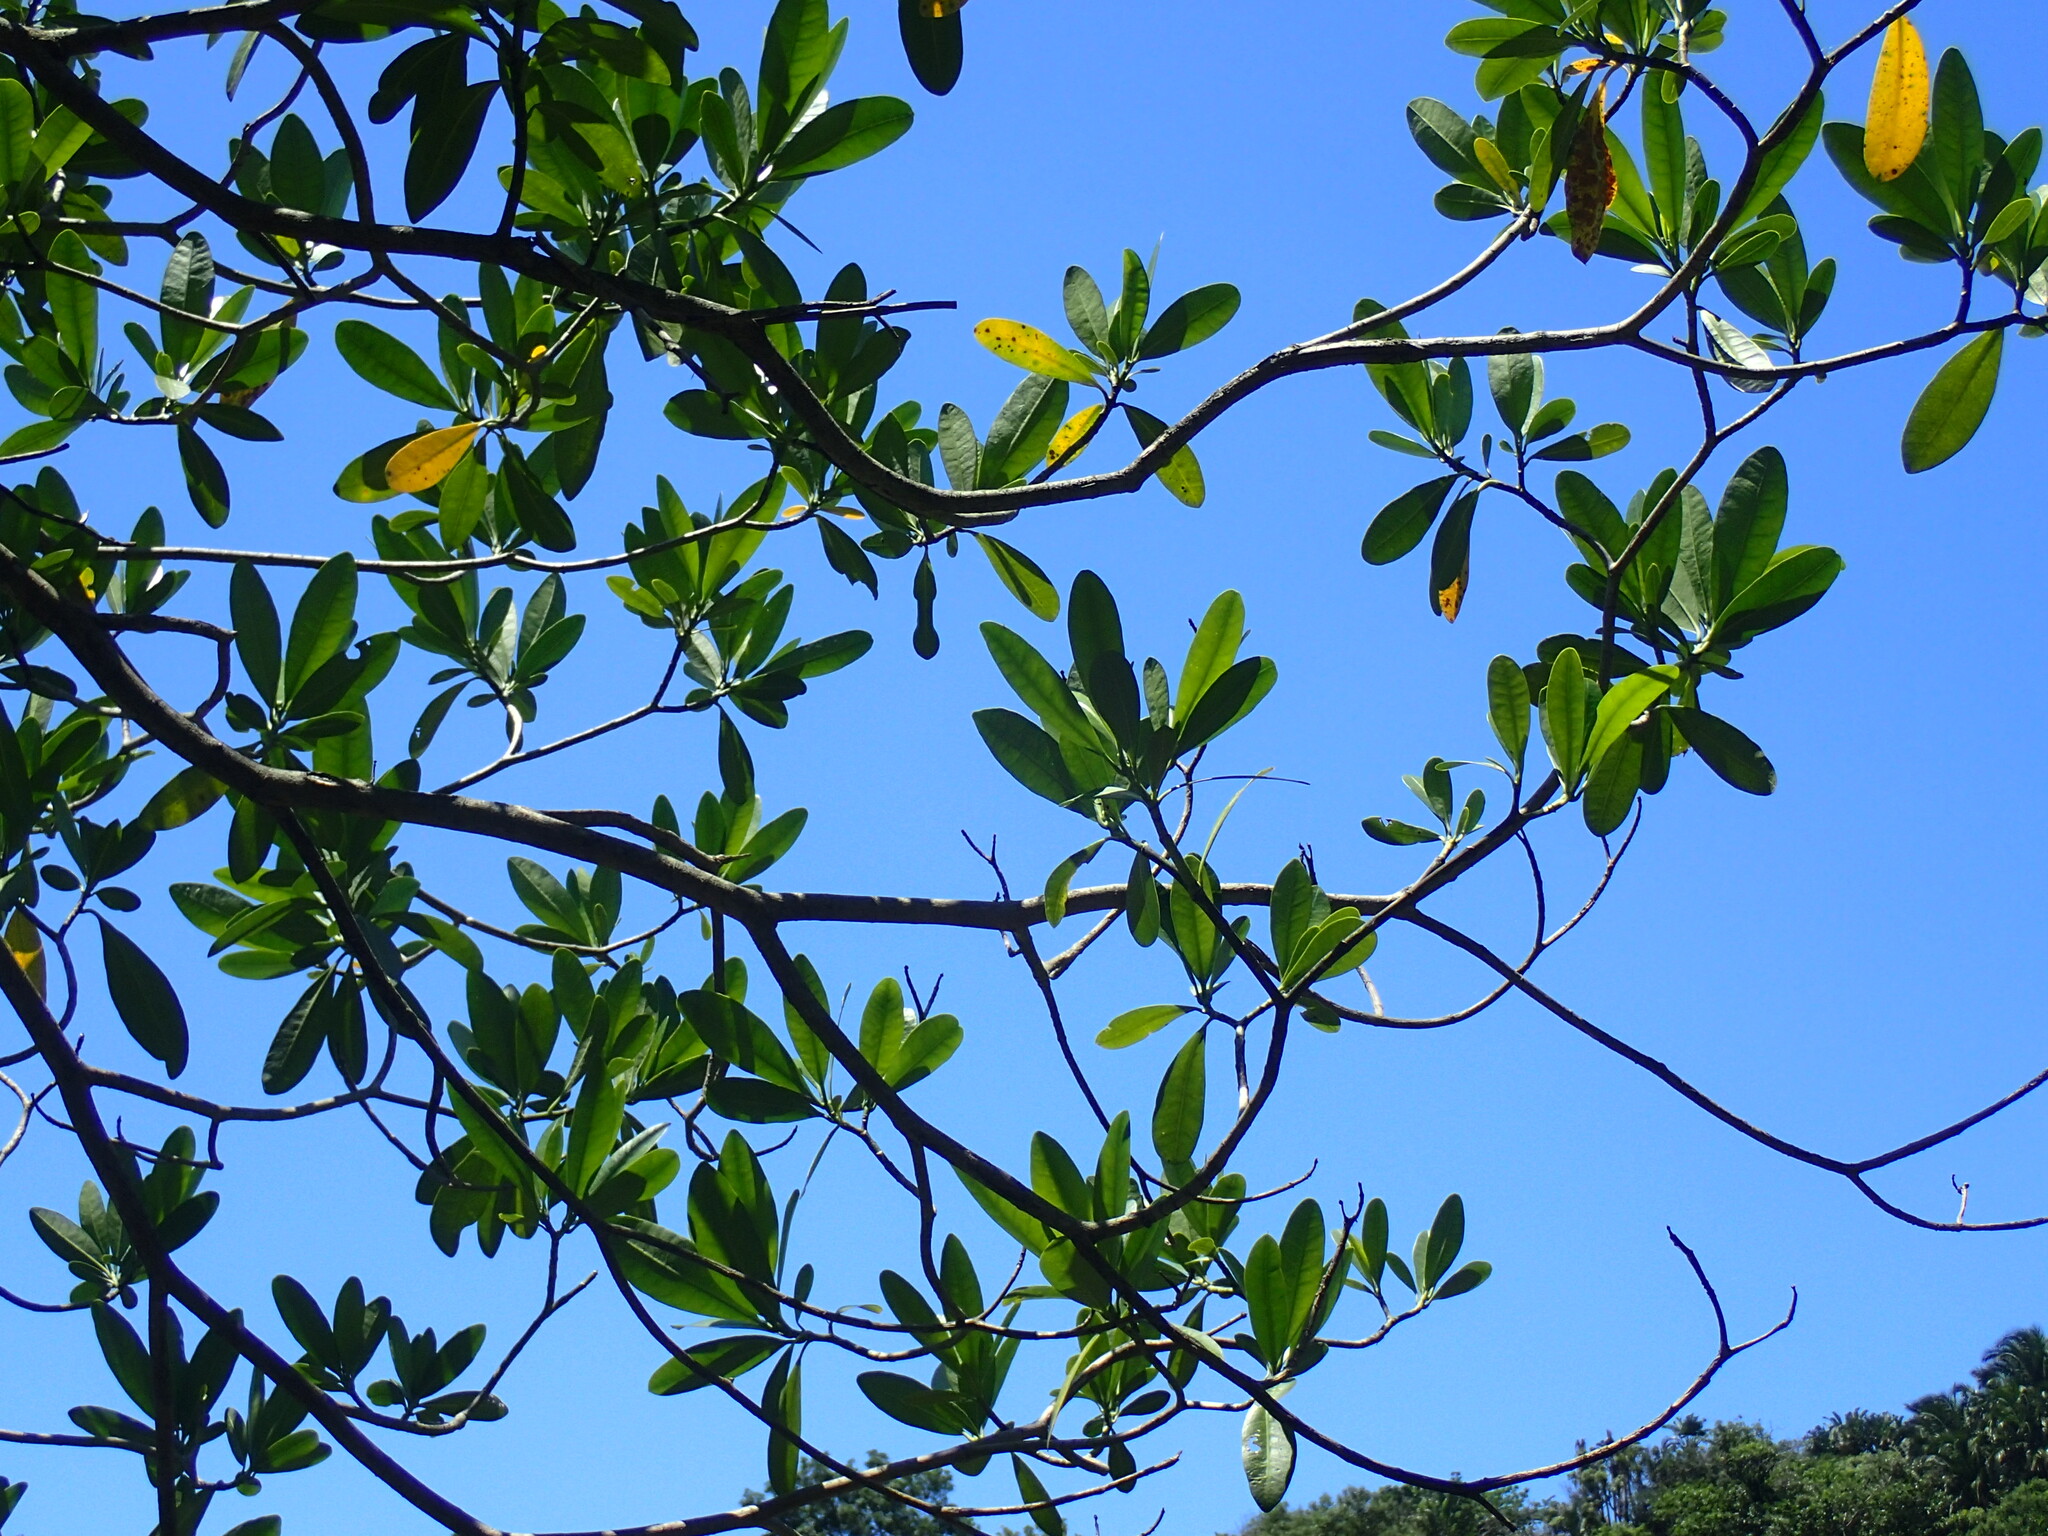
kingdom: Plantae
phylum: Tracheophyta
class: Magnoliopsida
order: Gentianales
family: Apocynaceae
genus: Voacanga
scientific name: Voacanga thouarsii
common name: Wild frangipani
